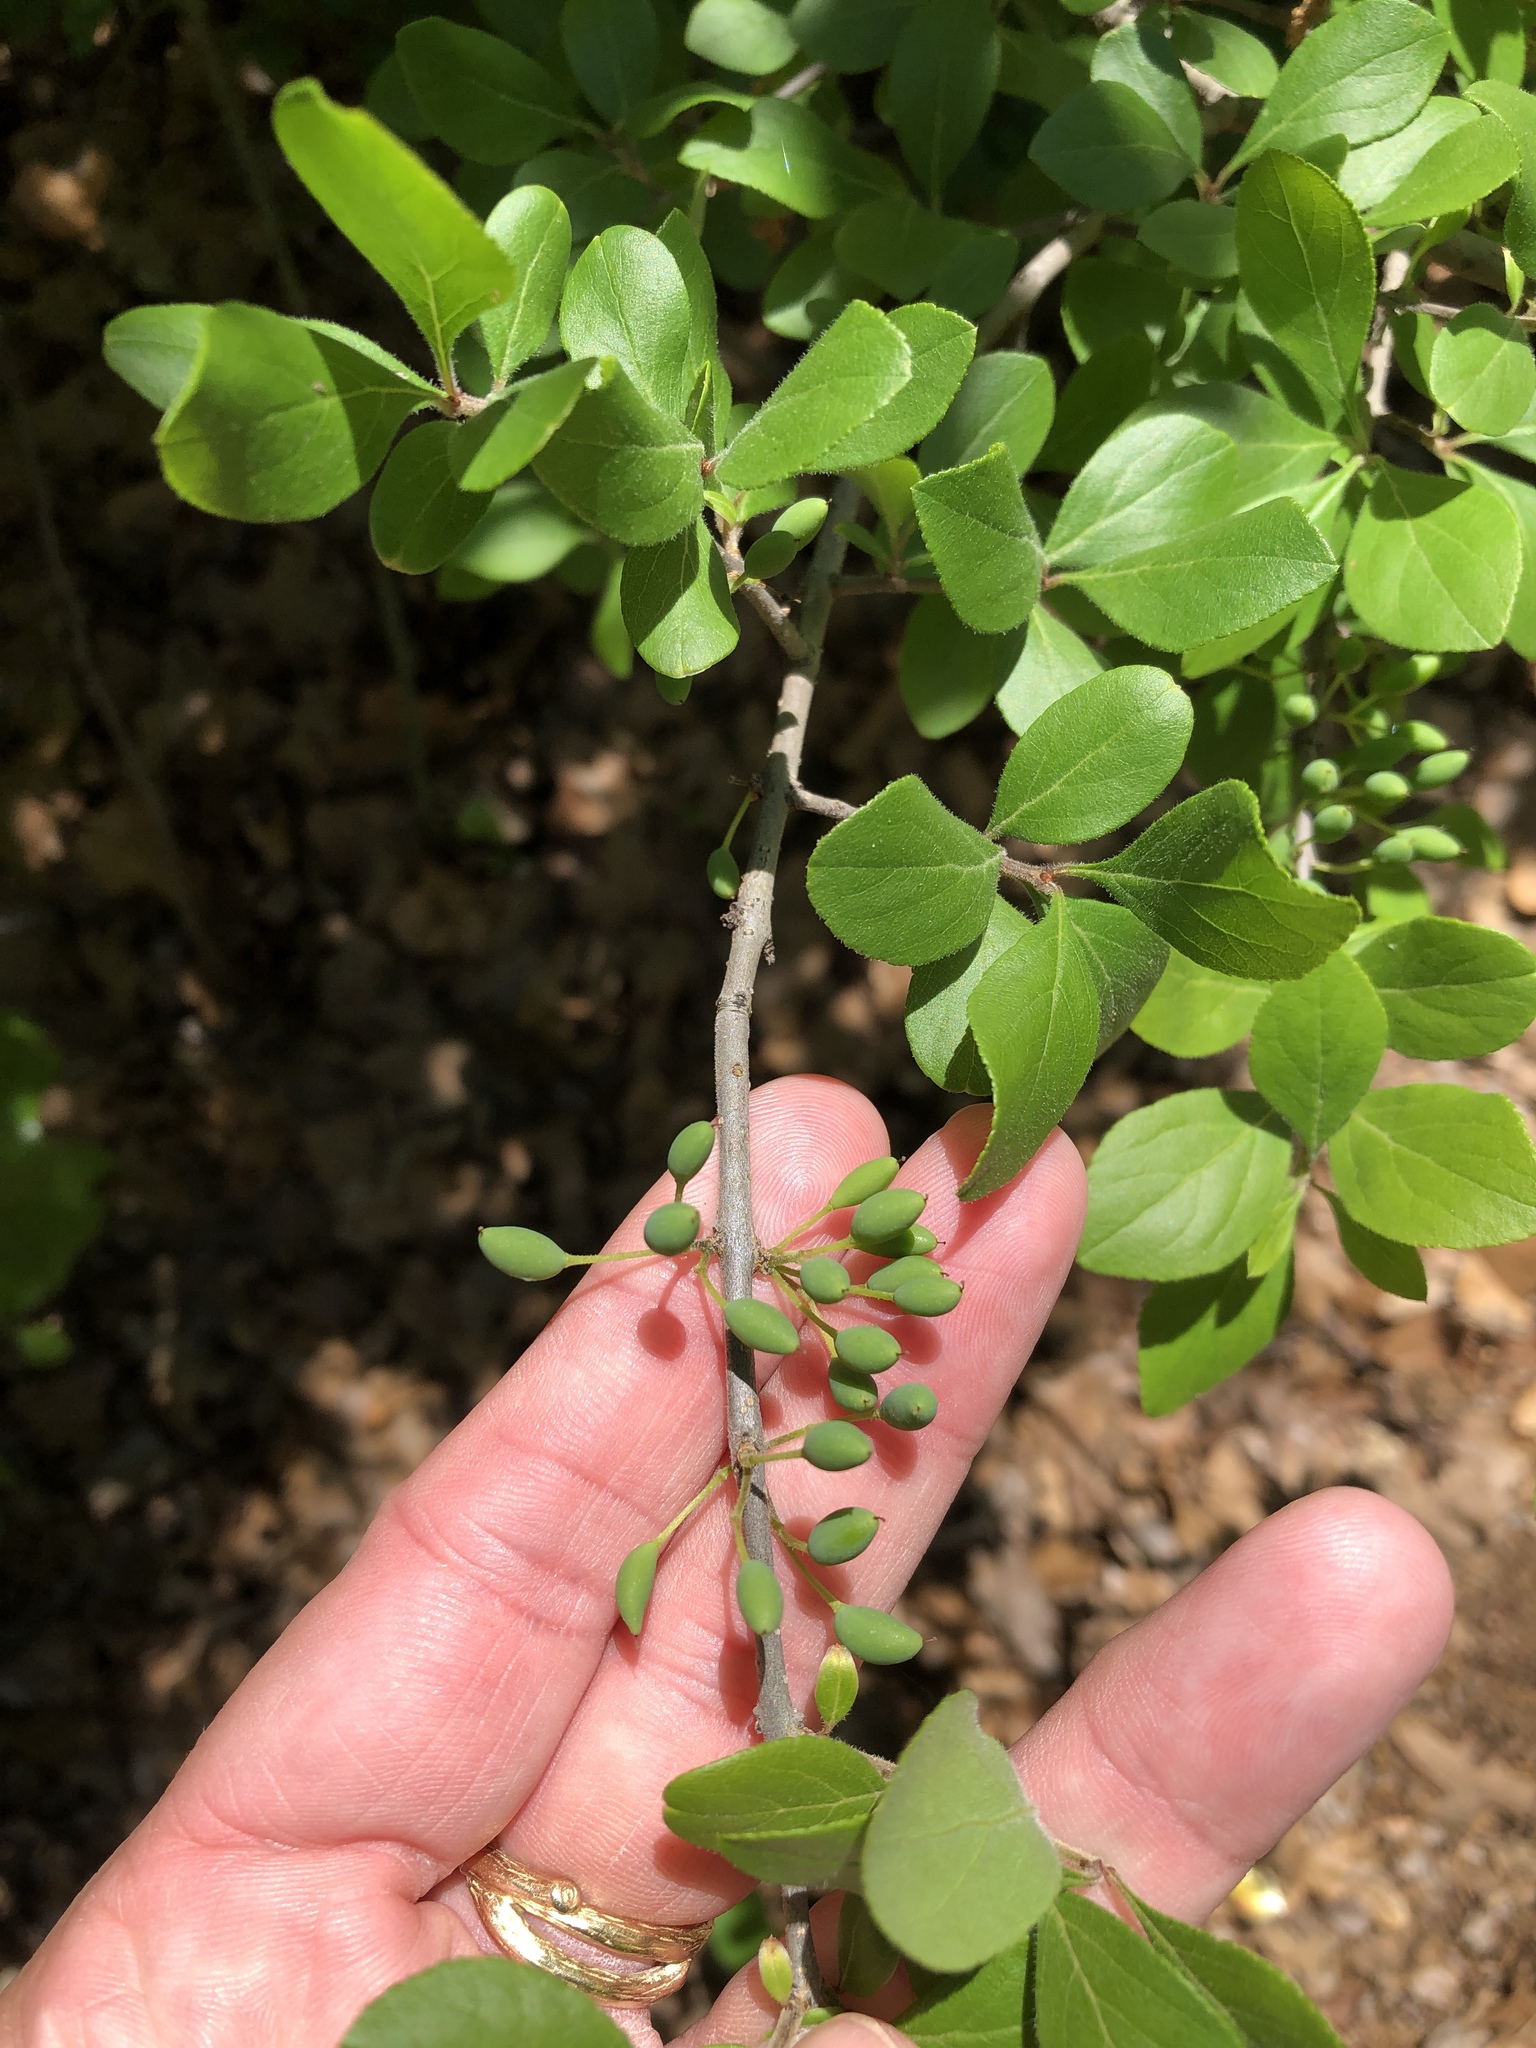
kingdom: Plantae
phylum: Tracheophyta
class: Magnoliopsida
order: Lamiales
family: Oleaceae
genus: Forestiera
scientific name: Forestiera pubescens
